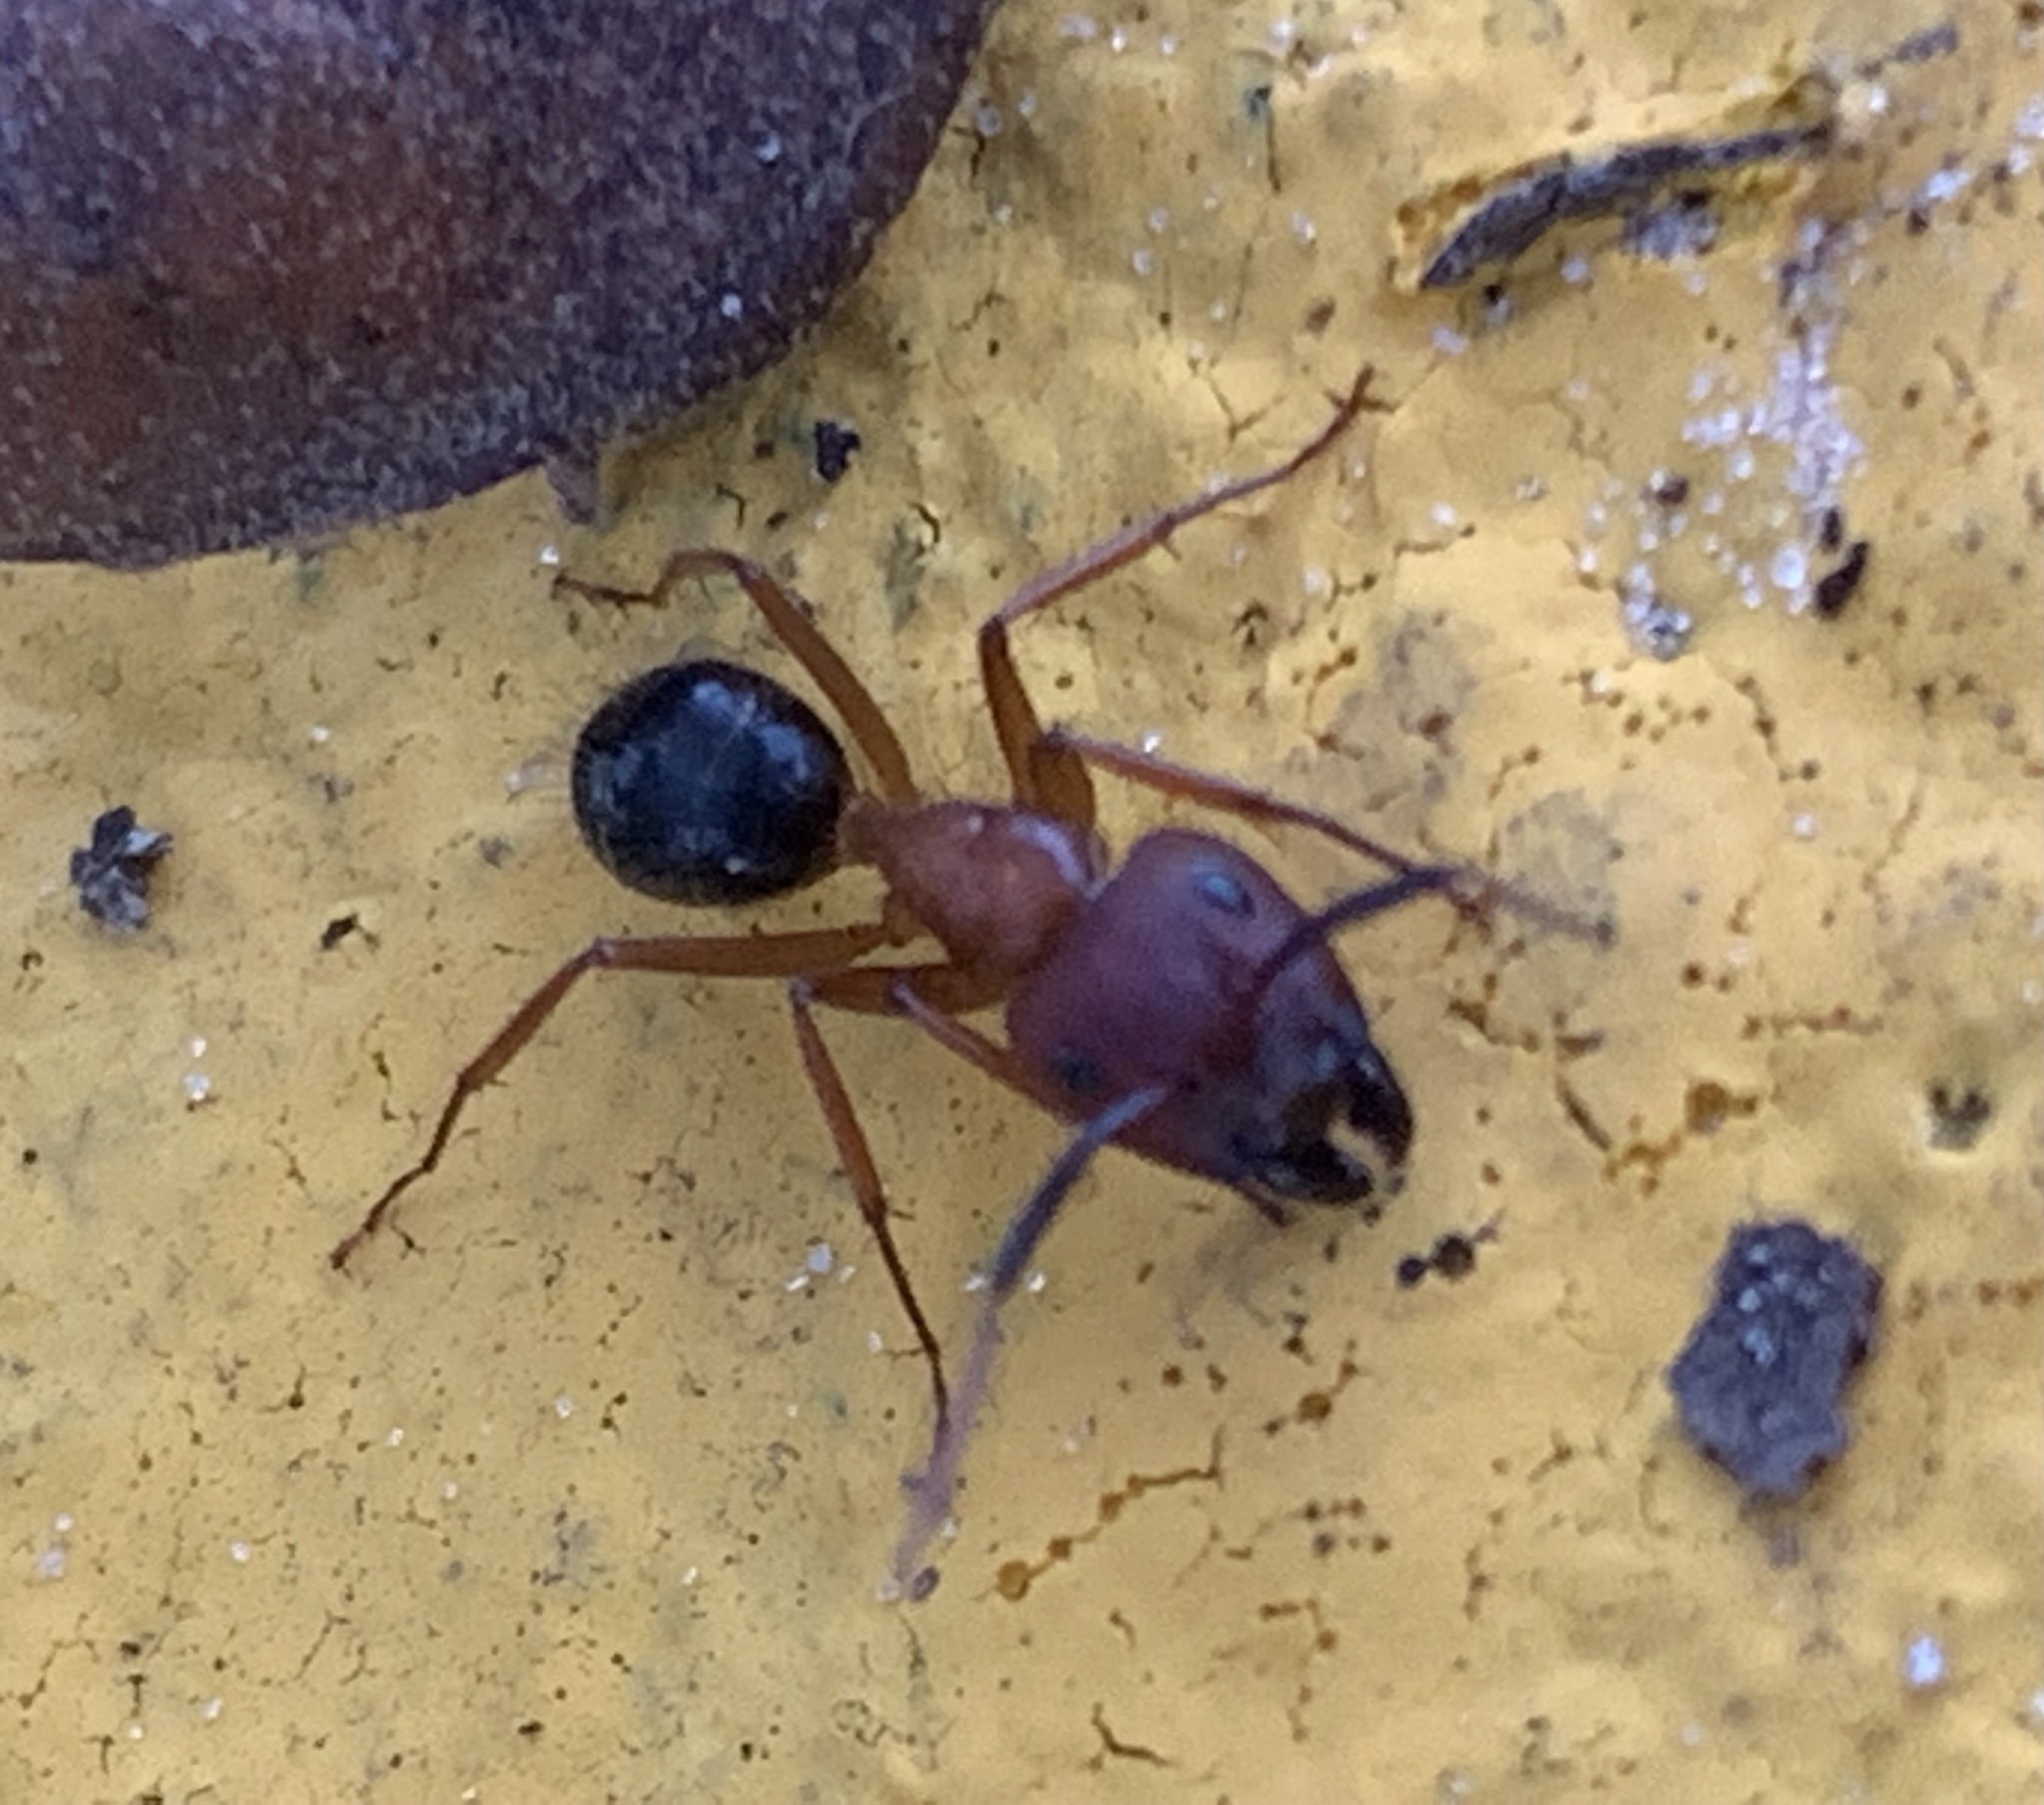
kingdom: Animalia
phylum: Arthropoda
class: Insecta
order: Hymenoptera
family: Formicidae
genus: Camponotus
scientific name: Camponotus floridanus
